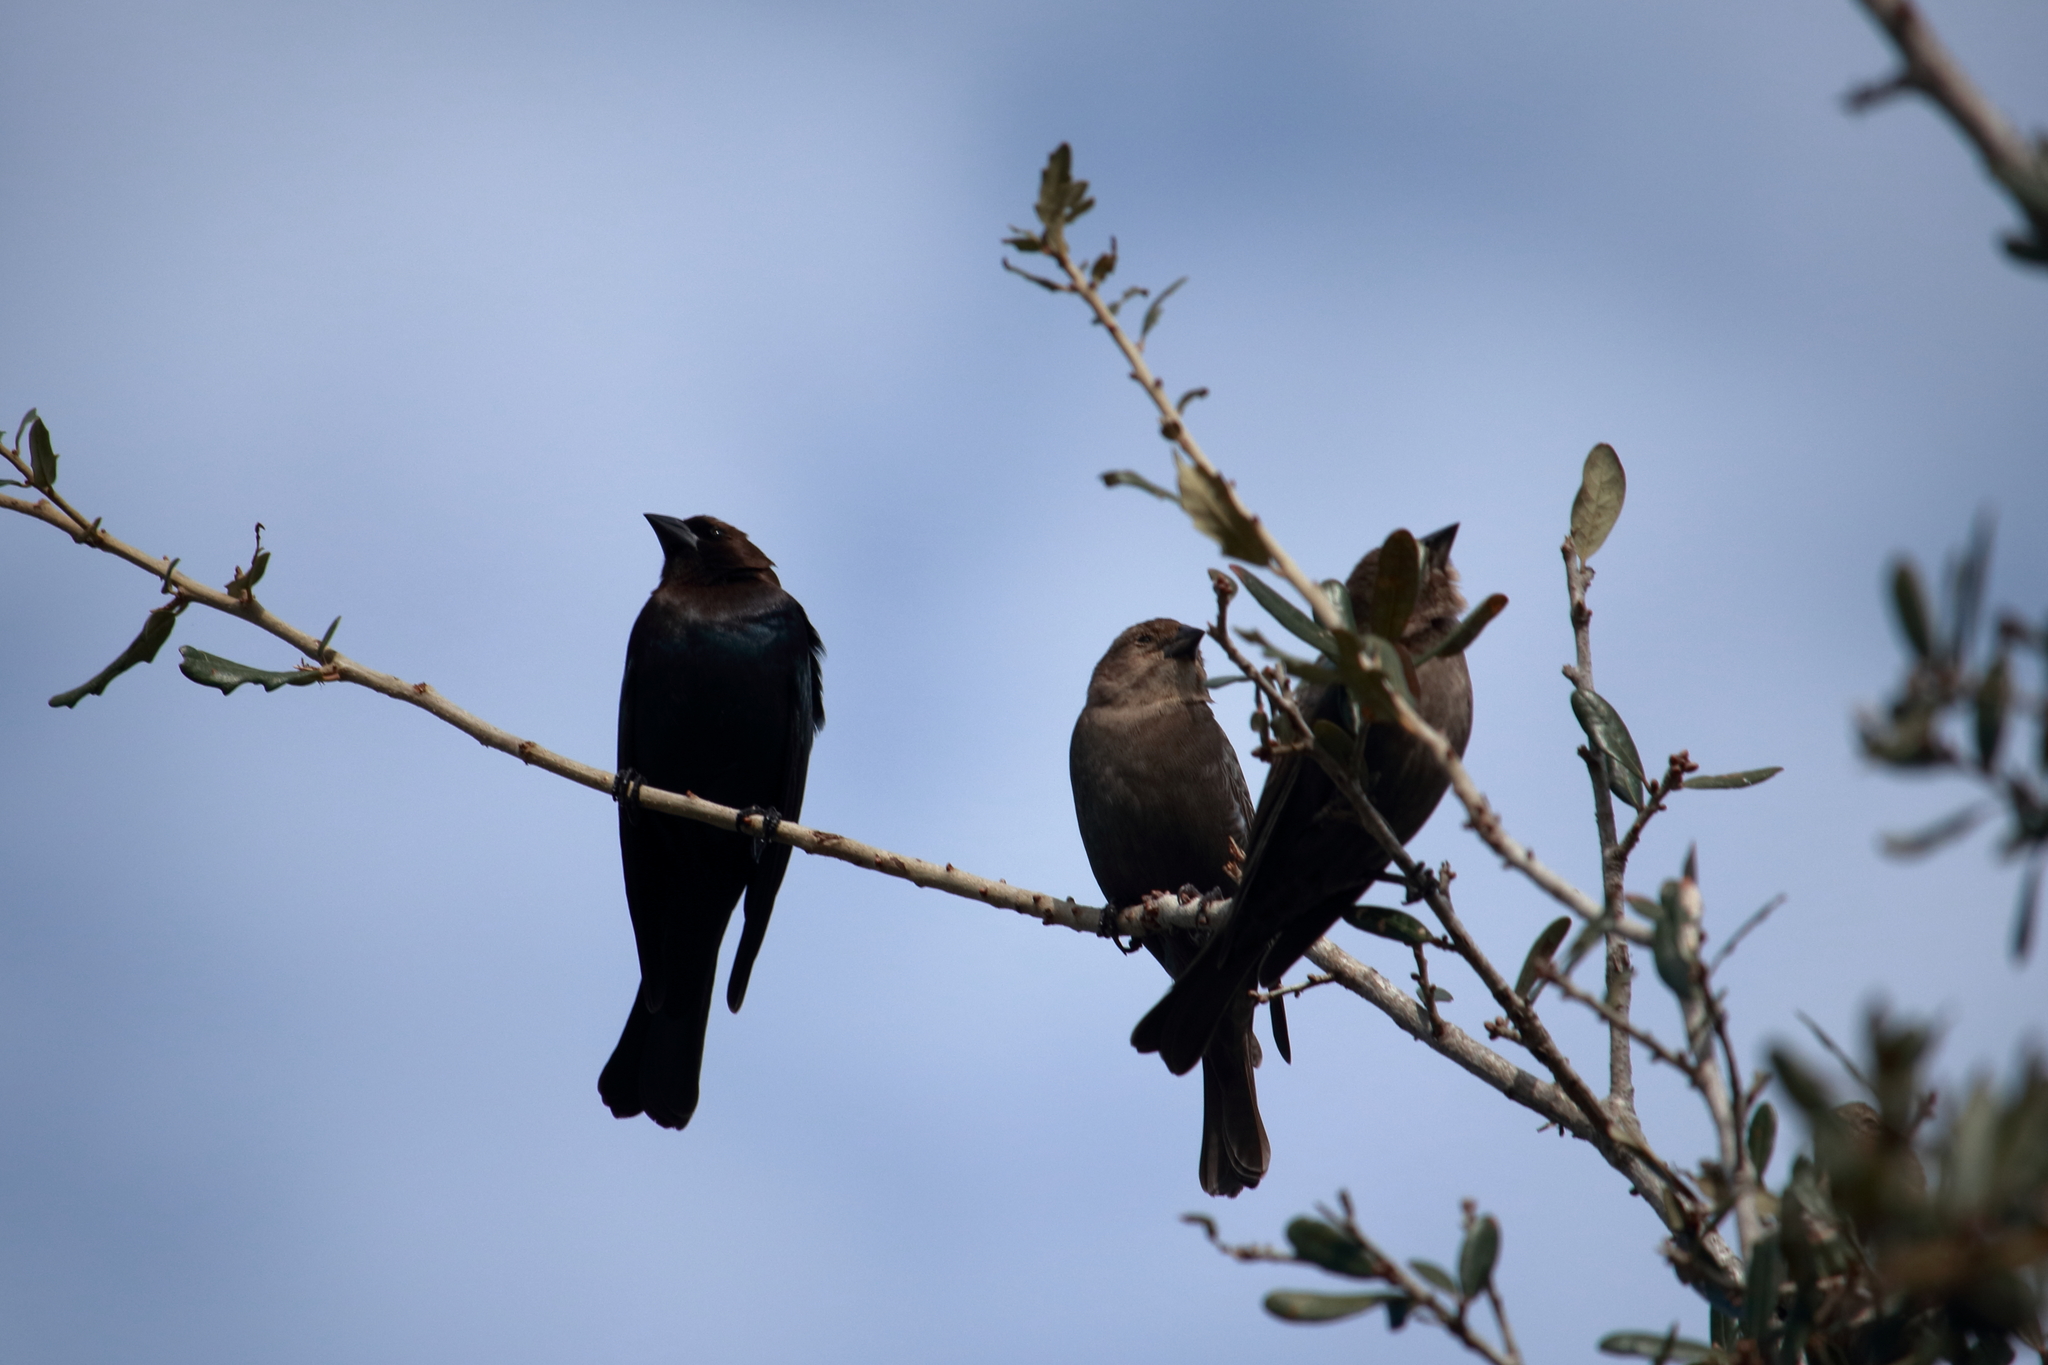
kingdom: Animalia
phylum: Chordata
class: Aves
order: Passeriformes
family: Icteridae
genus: Molothrus
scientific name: Molothrus ater
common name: Brown-headed cowbird
